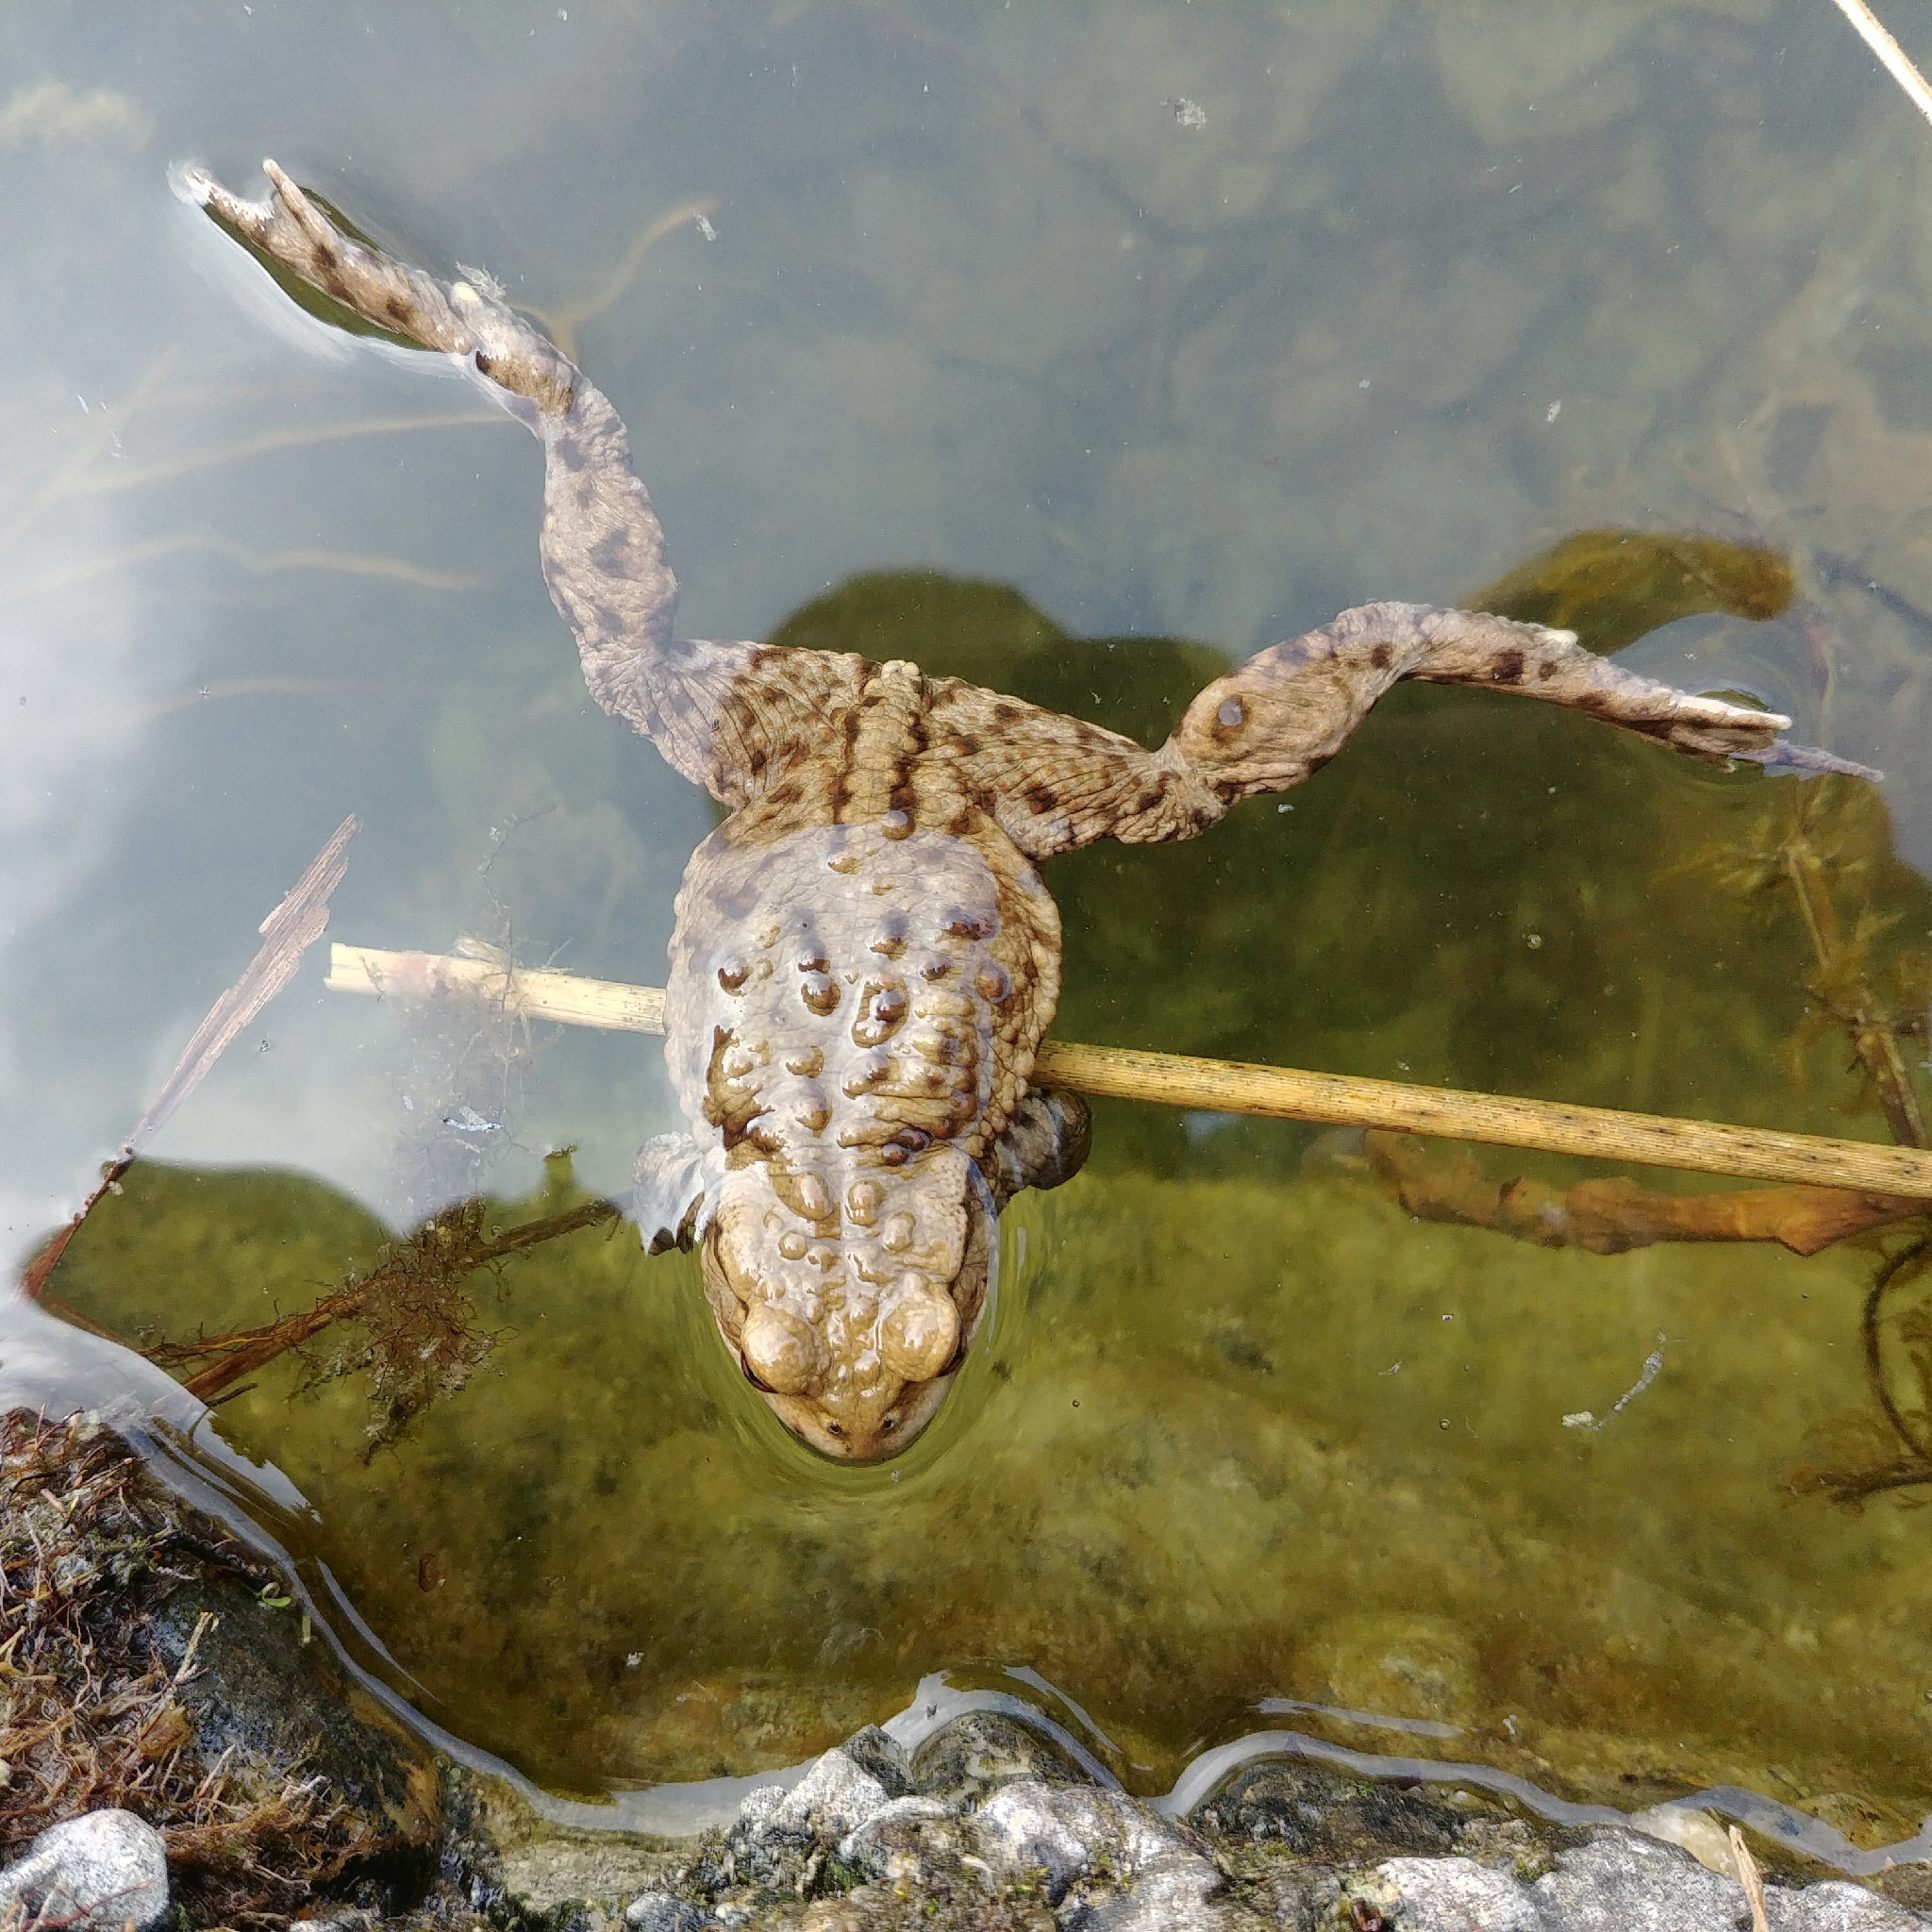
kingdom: Animalia
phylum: Chordata
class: Amphibia
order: Anura
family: Bufonidae
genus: Bufo
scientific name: Bufo bufo
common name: Common toad
